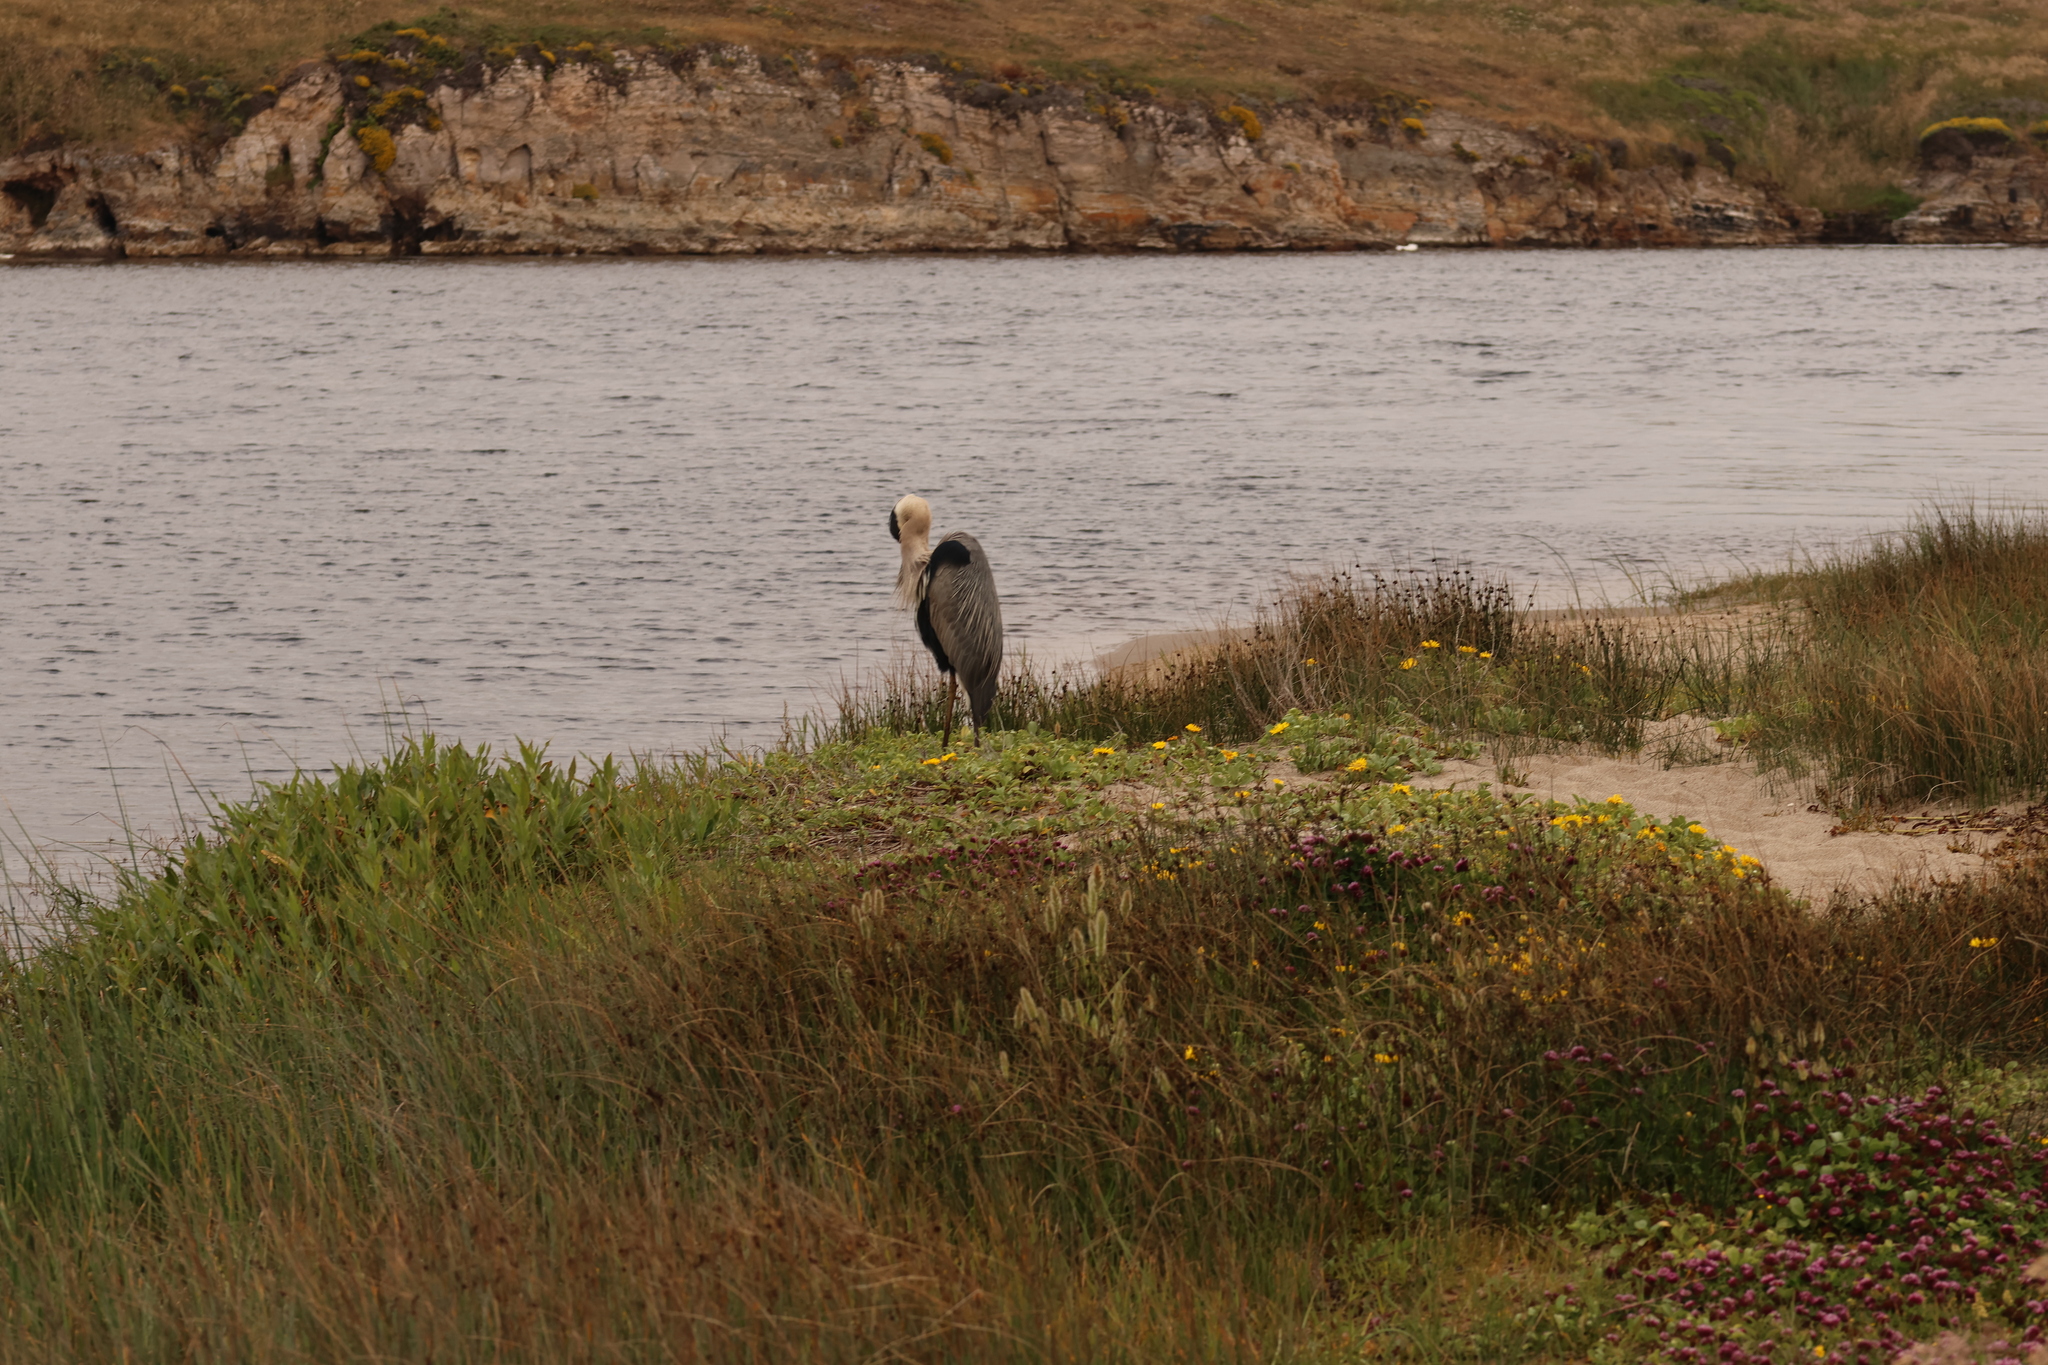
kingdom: Animalia
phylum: Chordata
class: Aves
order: Pelecaniformes
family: Ardeidae
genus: Ardea
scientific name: Ardea herodias
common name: Great blue heron
